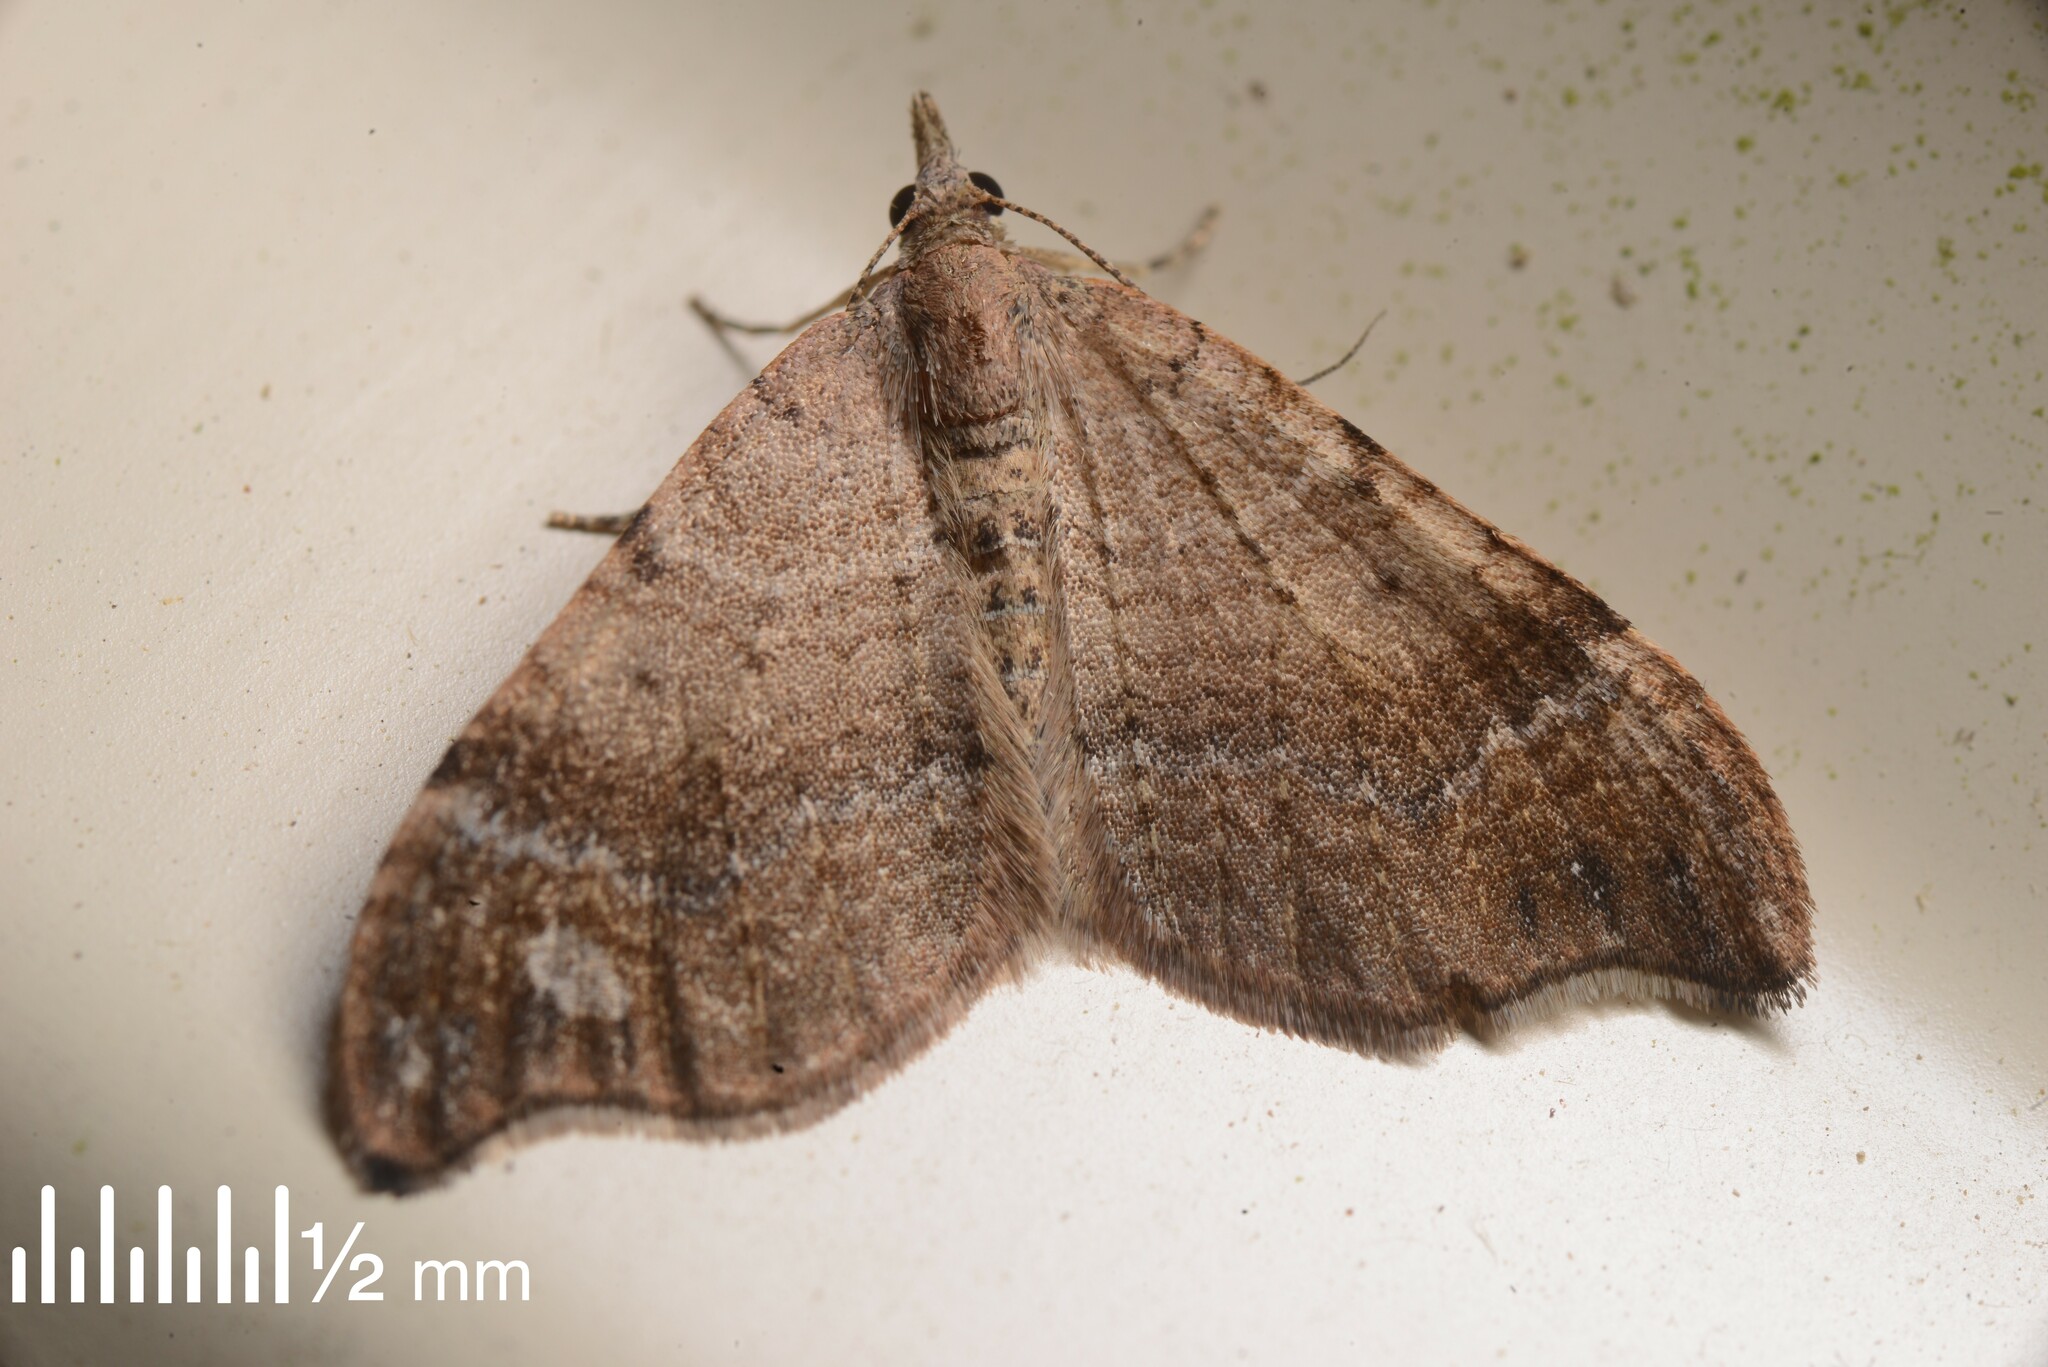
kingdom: Animalia
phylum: Arthropoda
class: Insecta
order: Lepidoptera
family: Geometridae
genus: Homodotis
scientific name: Homodotis megaspilata
